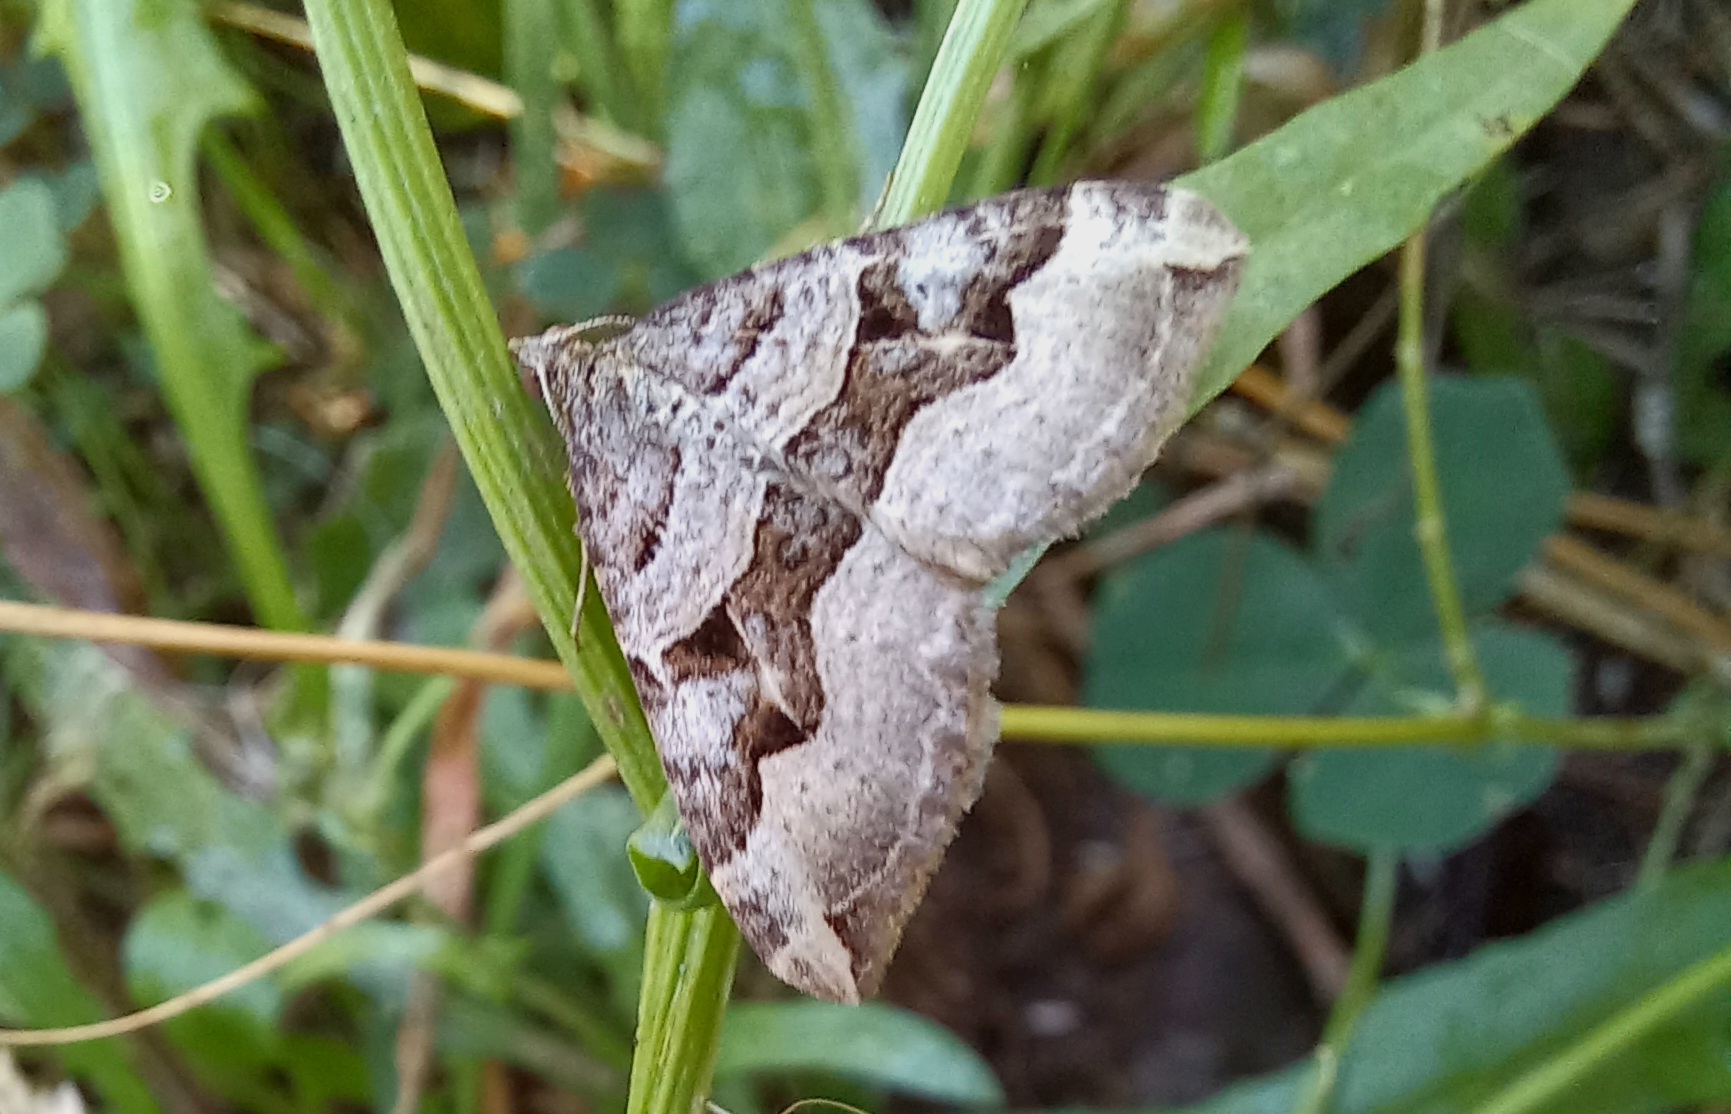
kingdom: Animalia
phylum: Arthropoda
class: Insecta
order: Lepidoptera
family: Geometridae
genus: Xanthorhoe
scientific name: Xanthorhoe semifissata
